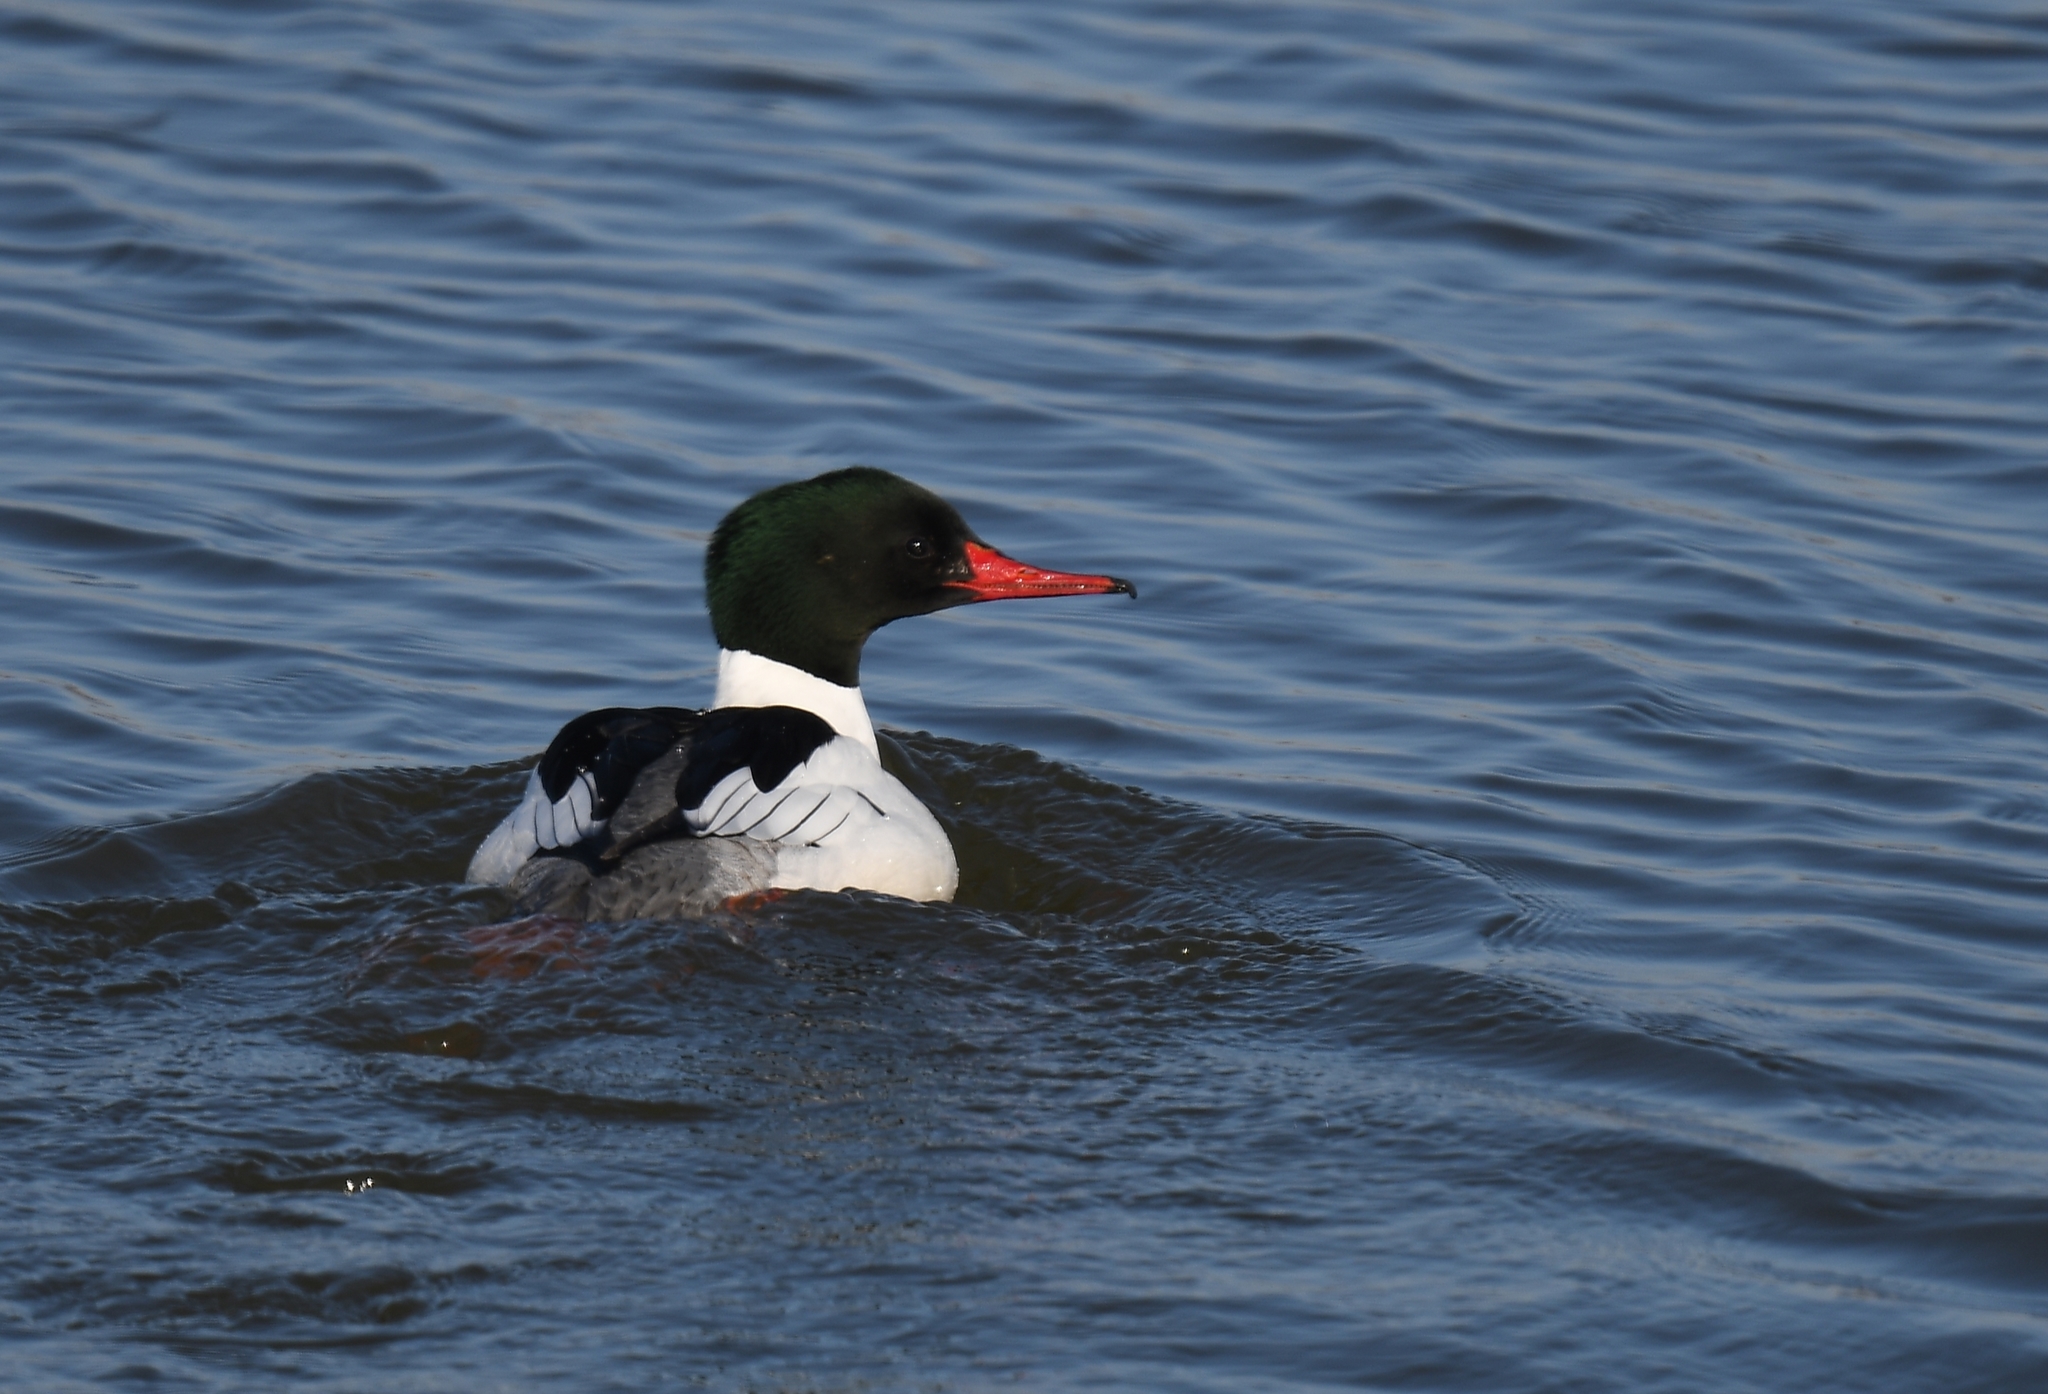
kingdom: Animalia
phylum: Chordata
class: Aves
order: Anseriformes
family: Anatidae
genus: Mergus
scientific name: Mergus merganser
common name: Common merganser
